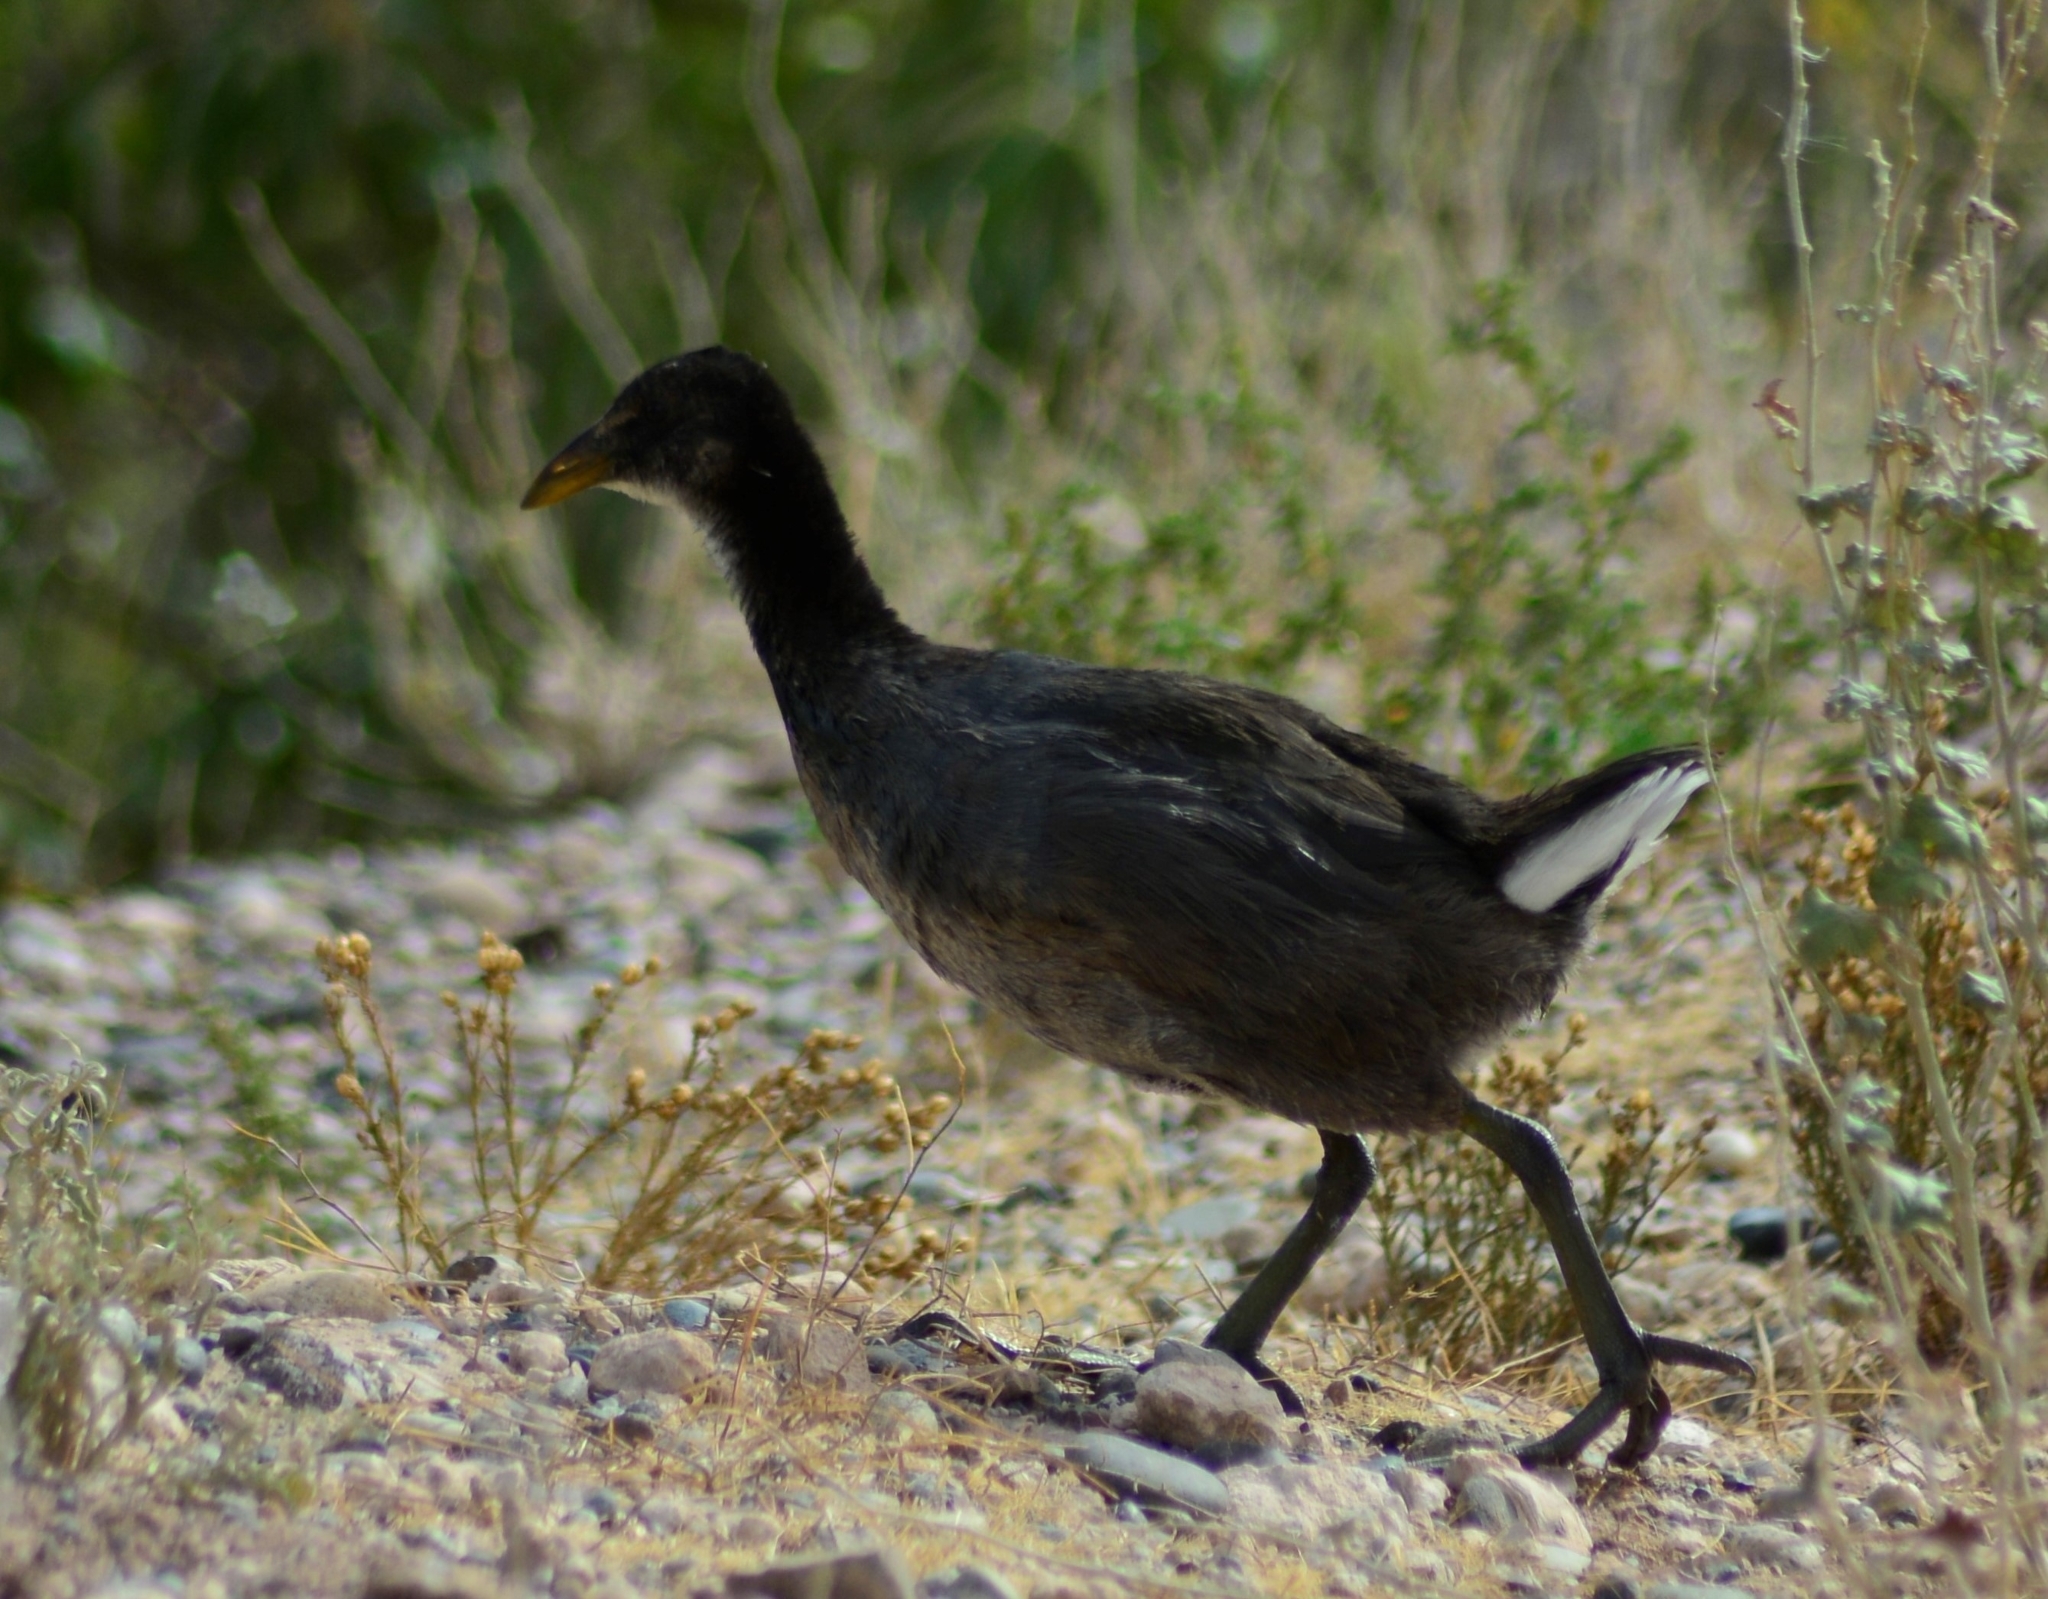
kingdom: Animalia
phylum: Chordata
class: Aves
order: Gruiformes
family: Rallidae
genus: Fulica
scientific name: Fulica rufifrons
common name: Red-fronted coot
